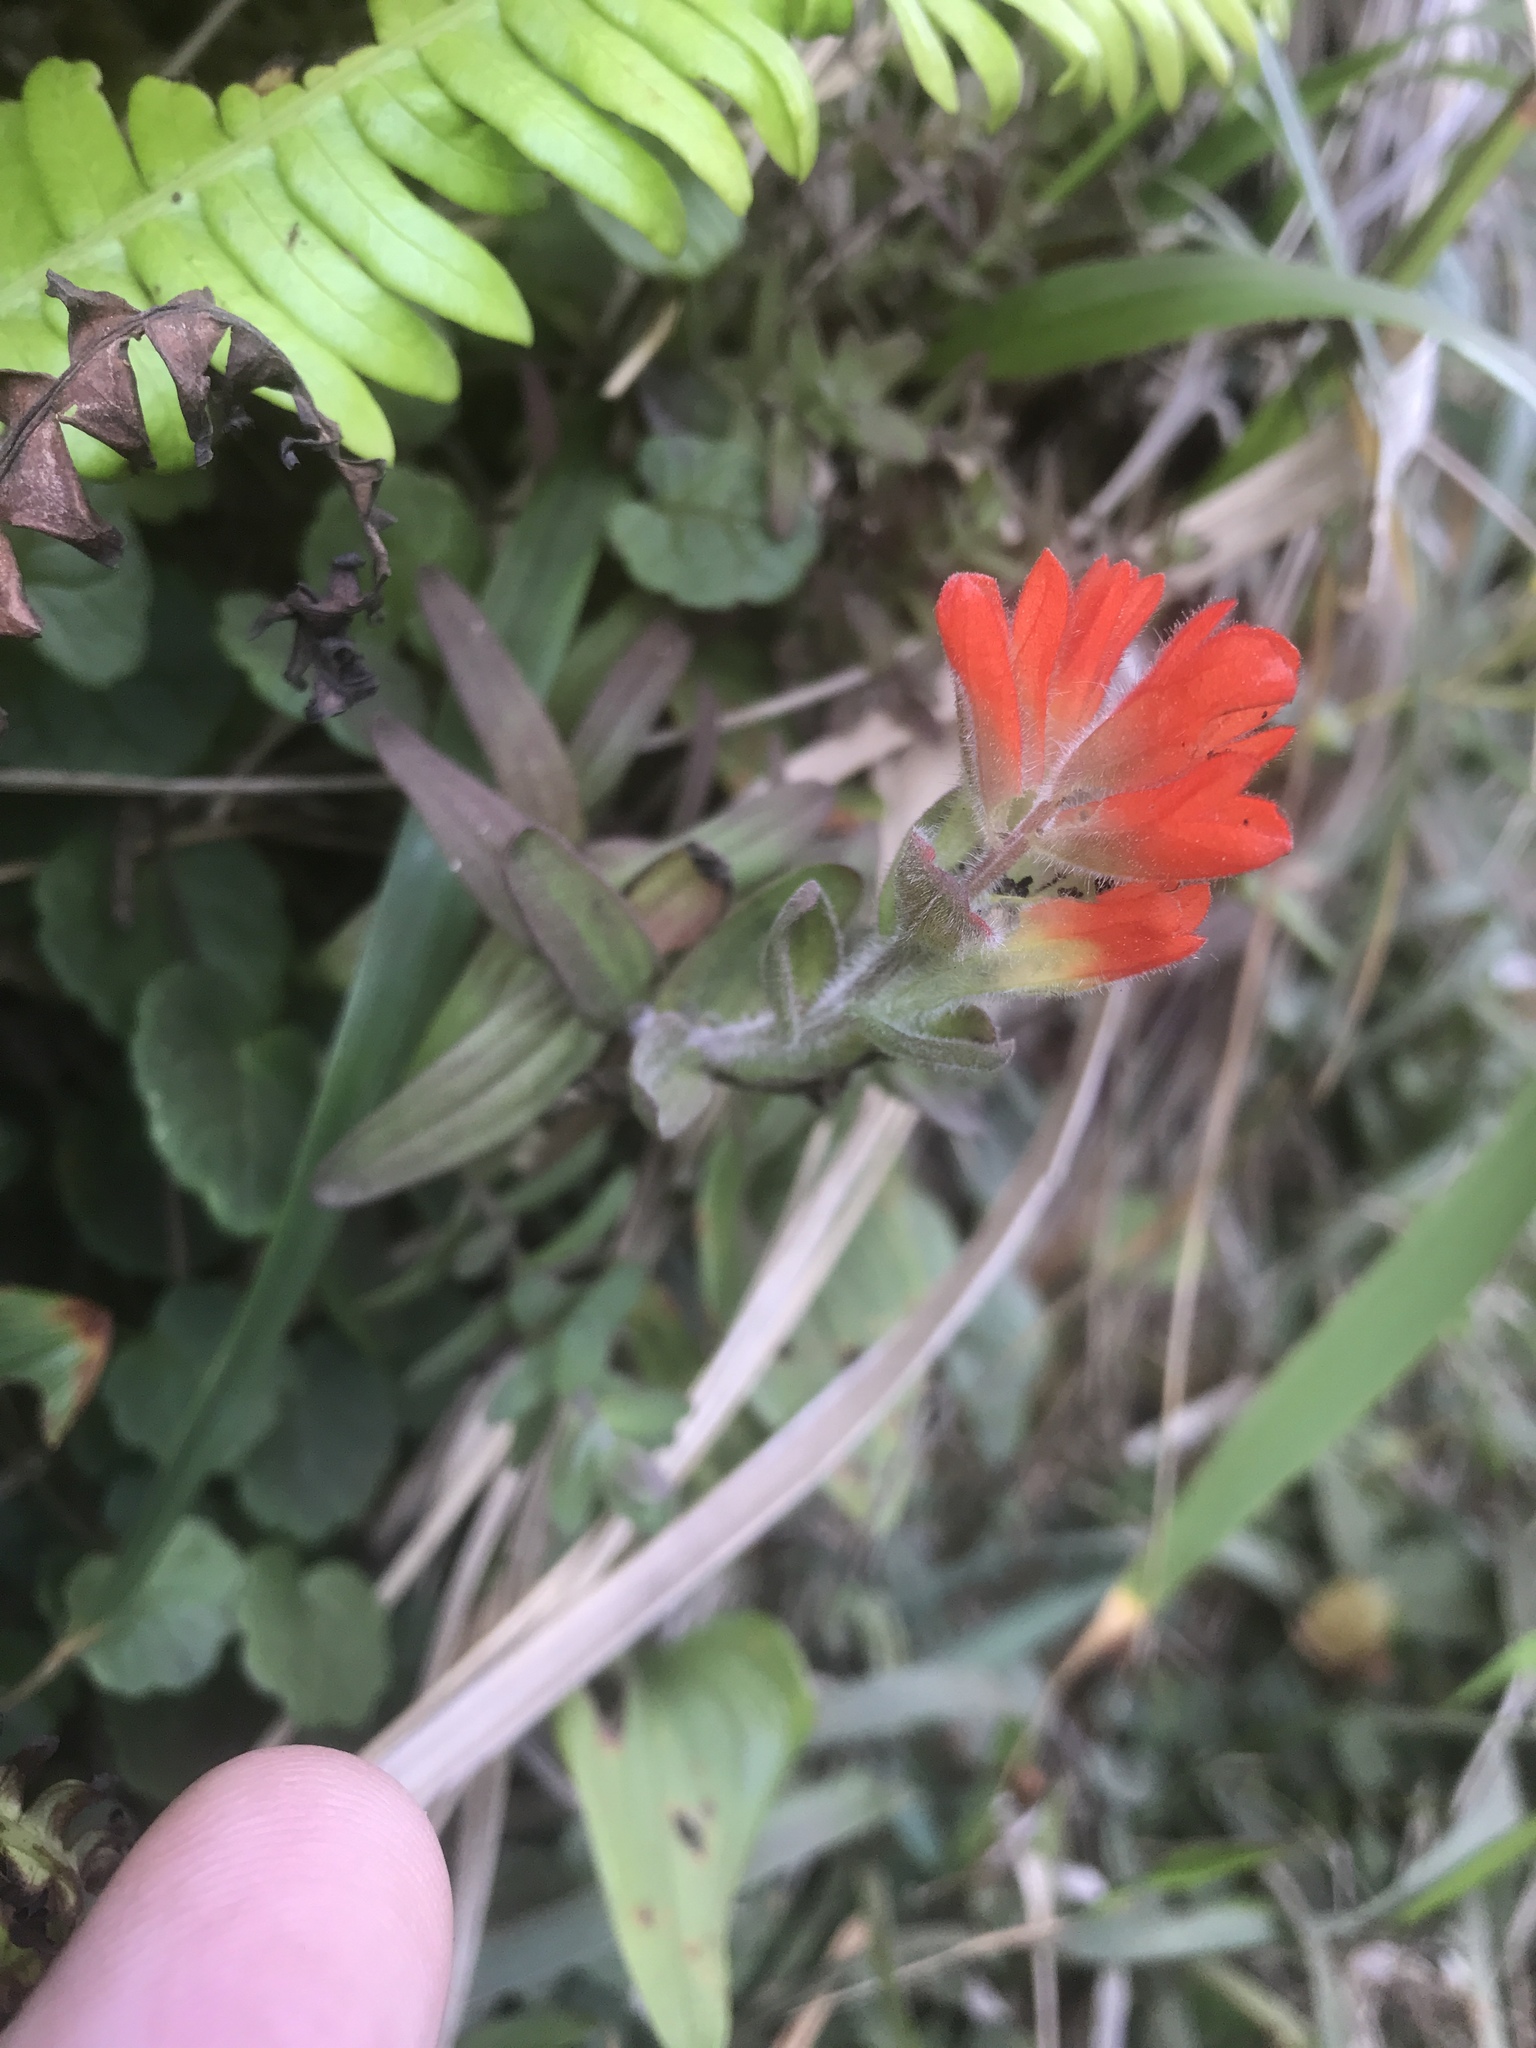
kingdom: Plantae
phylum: Tracheophyta
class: Magnoliopsida
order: Lamiales
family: Orobanchaceae
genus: Castilleja
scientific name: Castilleja litoralis
